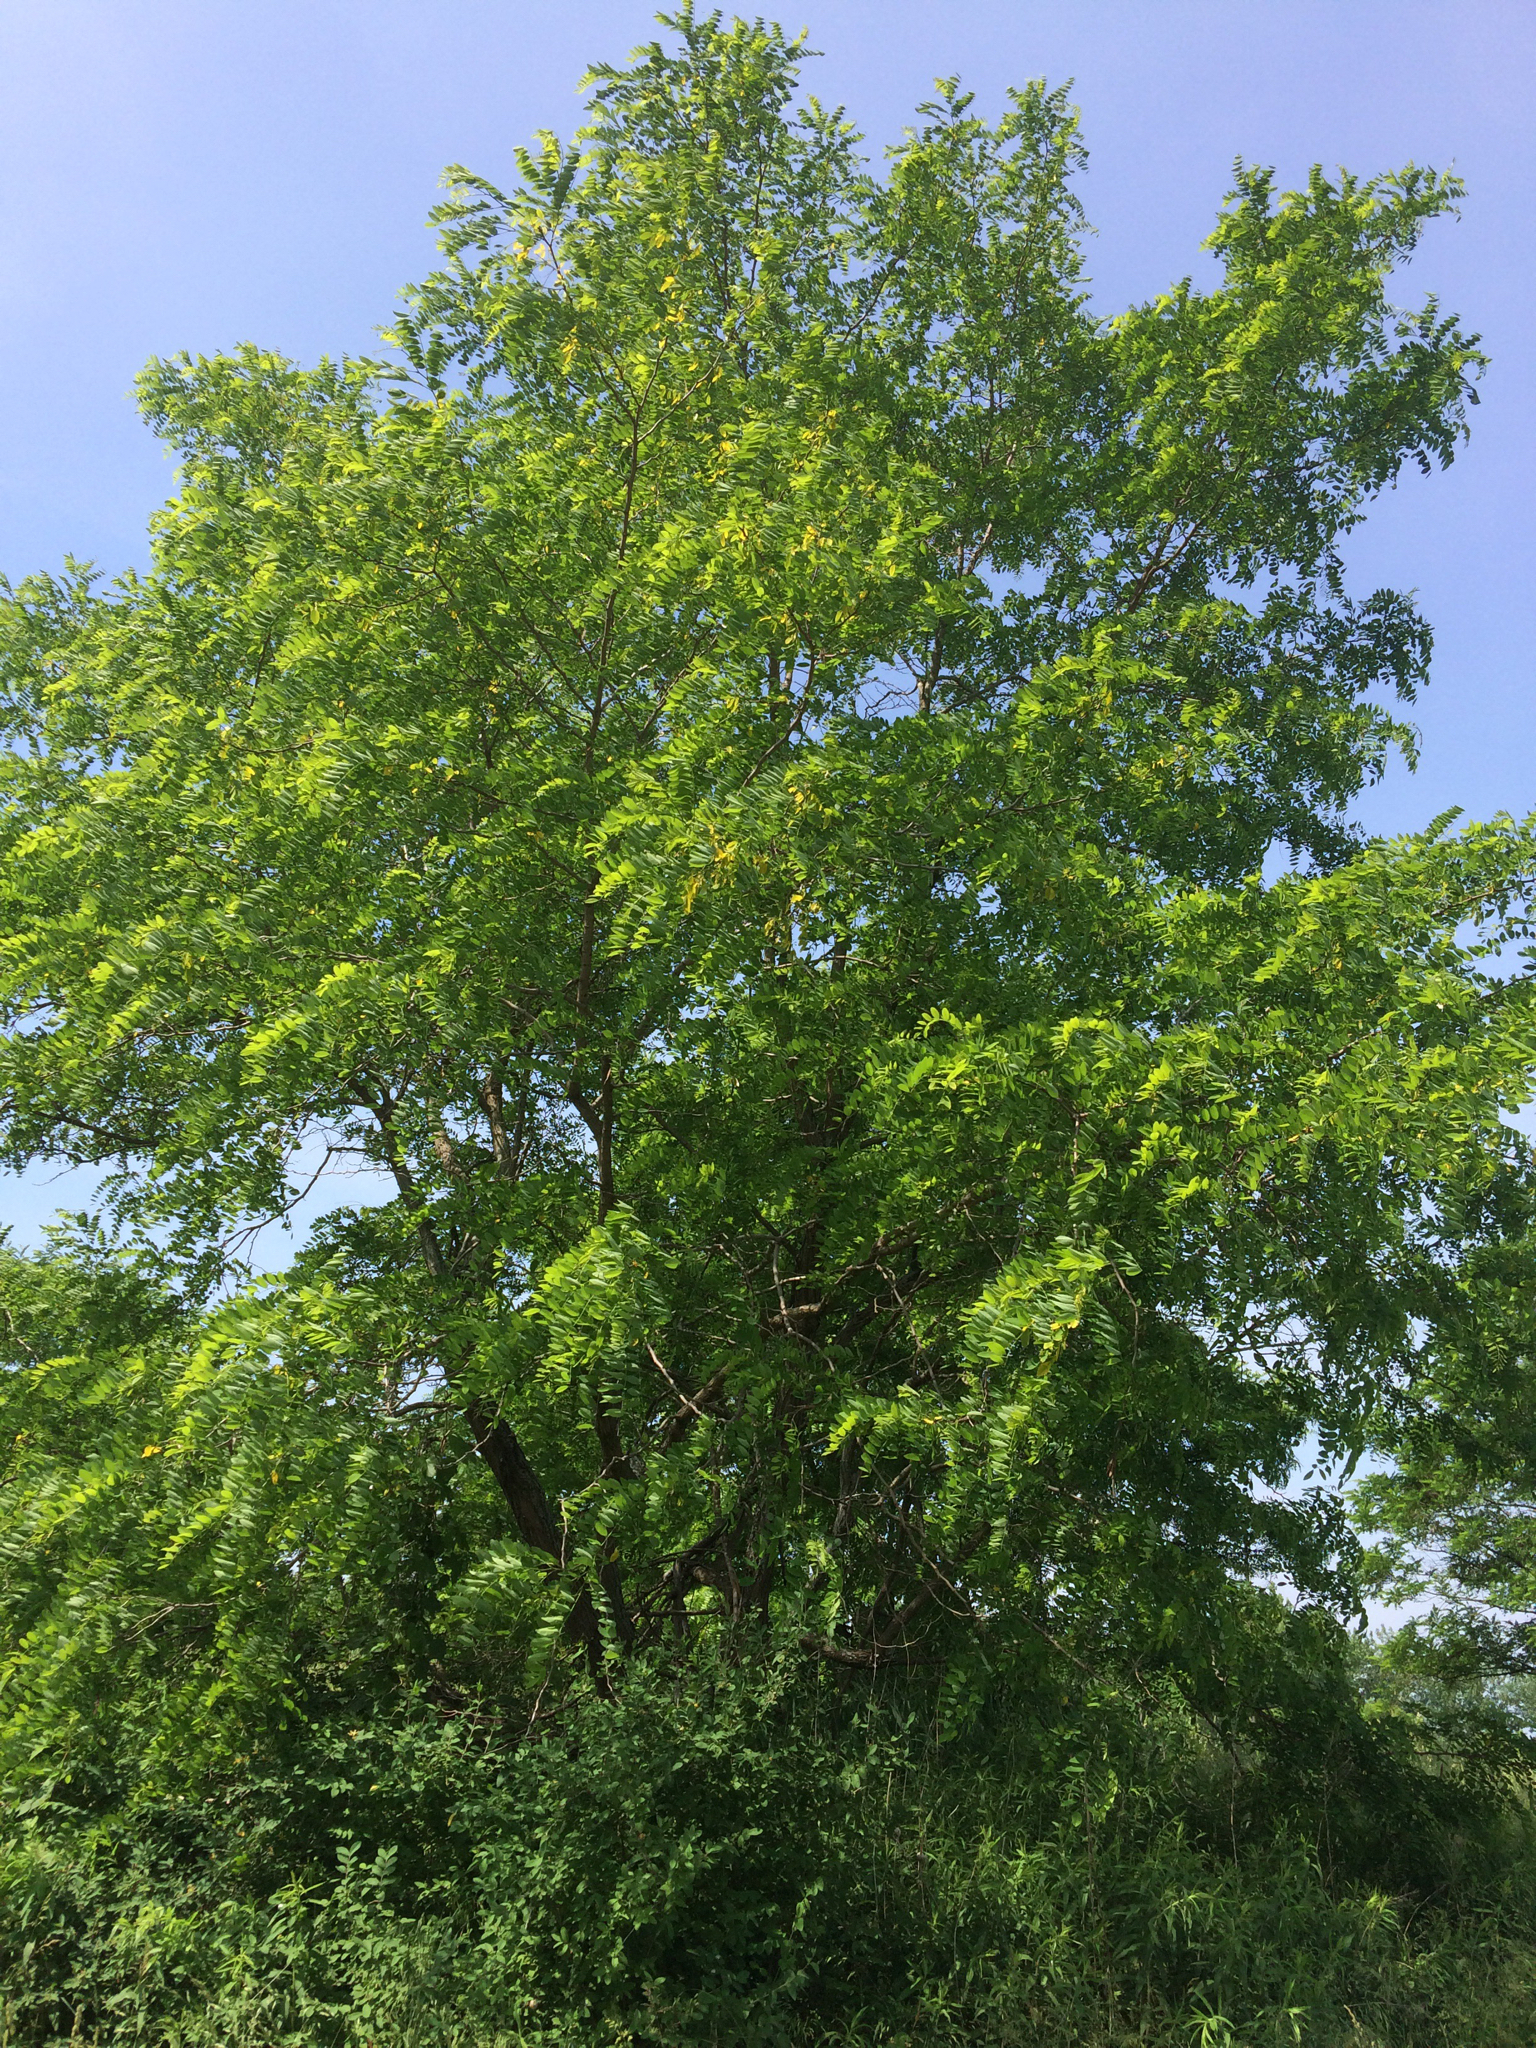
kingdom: Plantae
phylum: Tracheophyta
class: Magnoliopsida
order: Fabales
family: Fabaceae
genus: Robinia
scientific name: Robinia pseudoacacia
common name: Black locust
